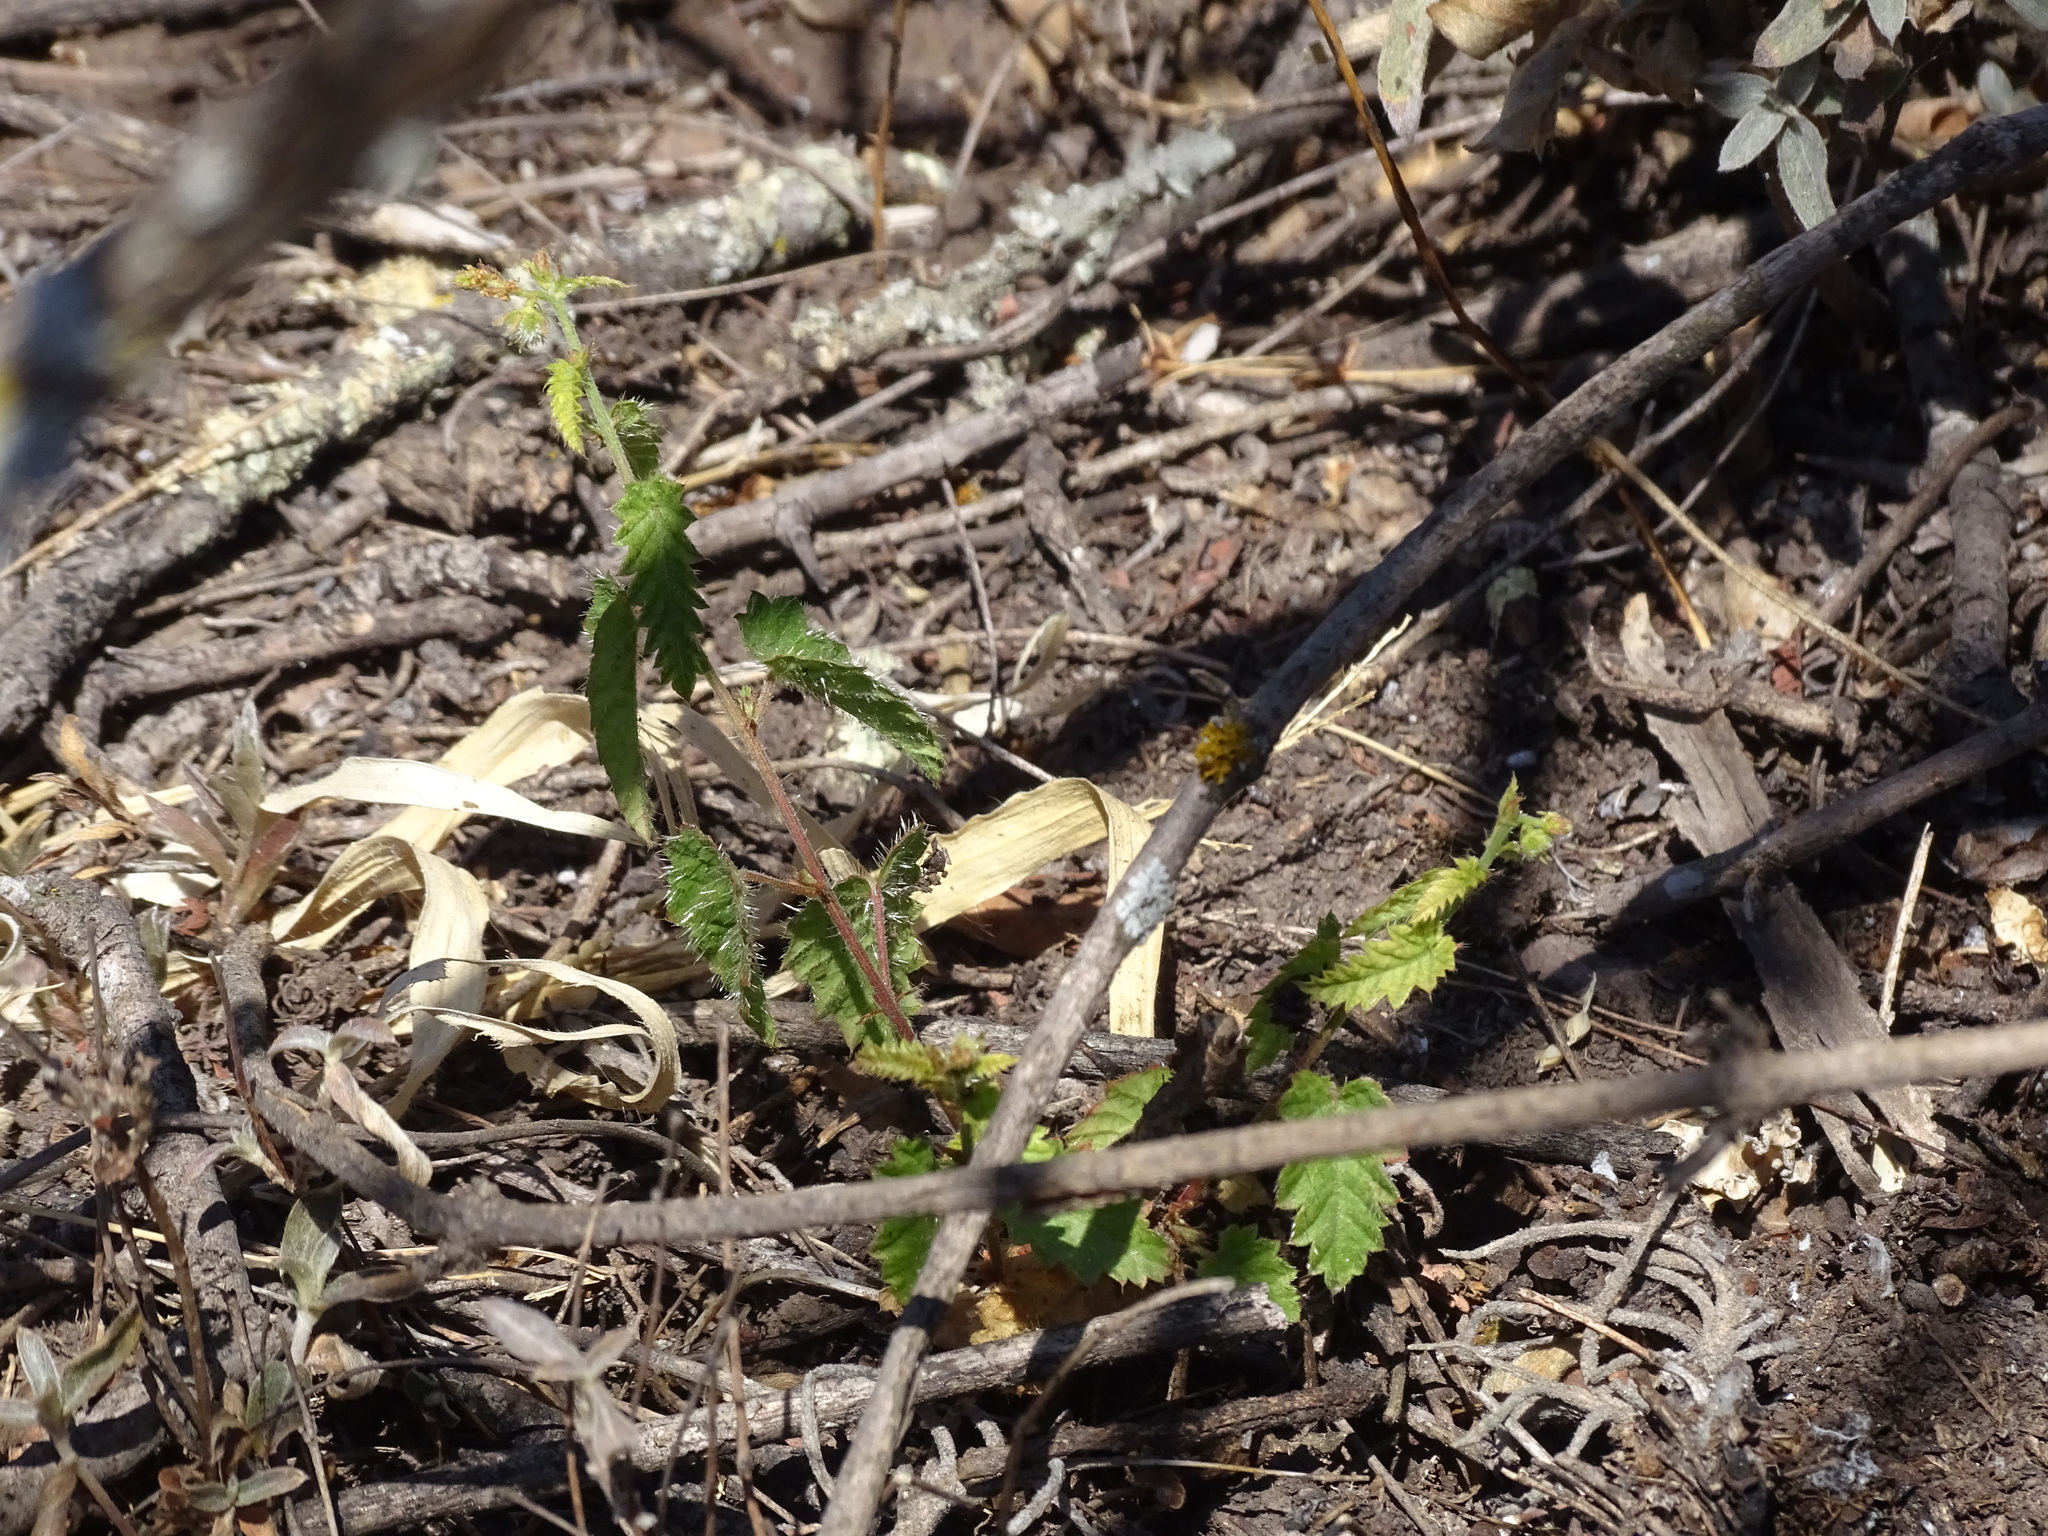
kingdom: Plantae
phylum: Tracheophyta
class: Magnoliopsida
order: Malpighiales
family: Euphorbiaceae
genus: Tragia
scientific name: Tragia nepetifolia
